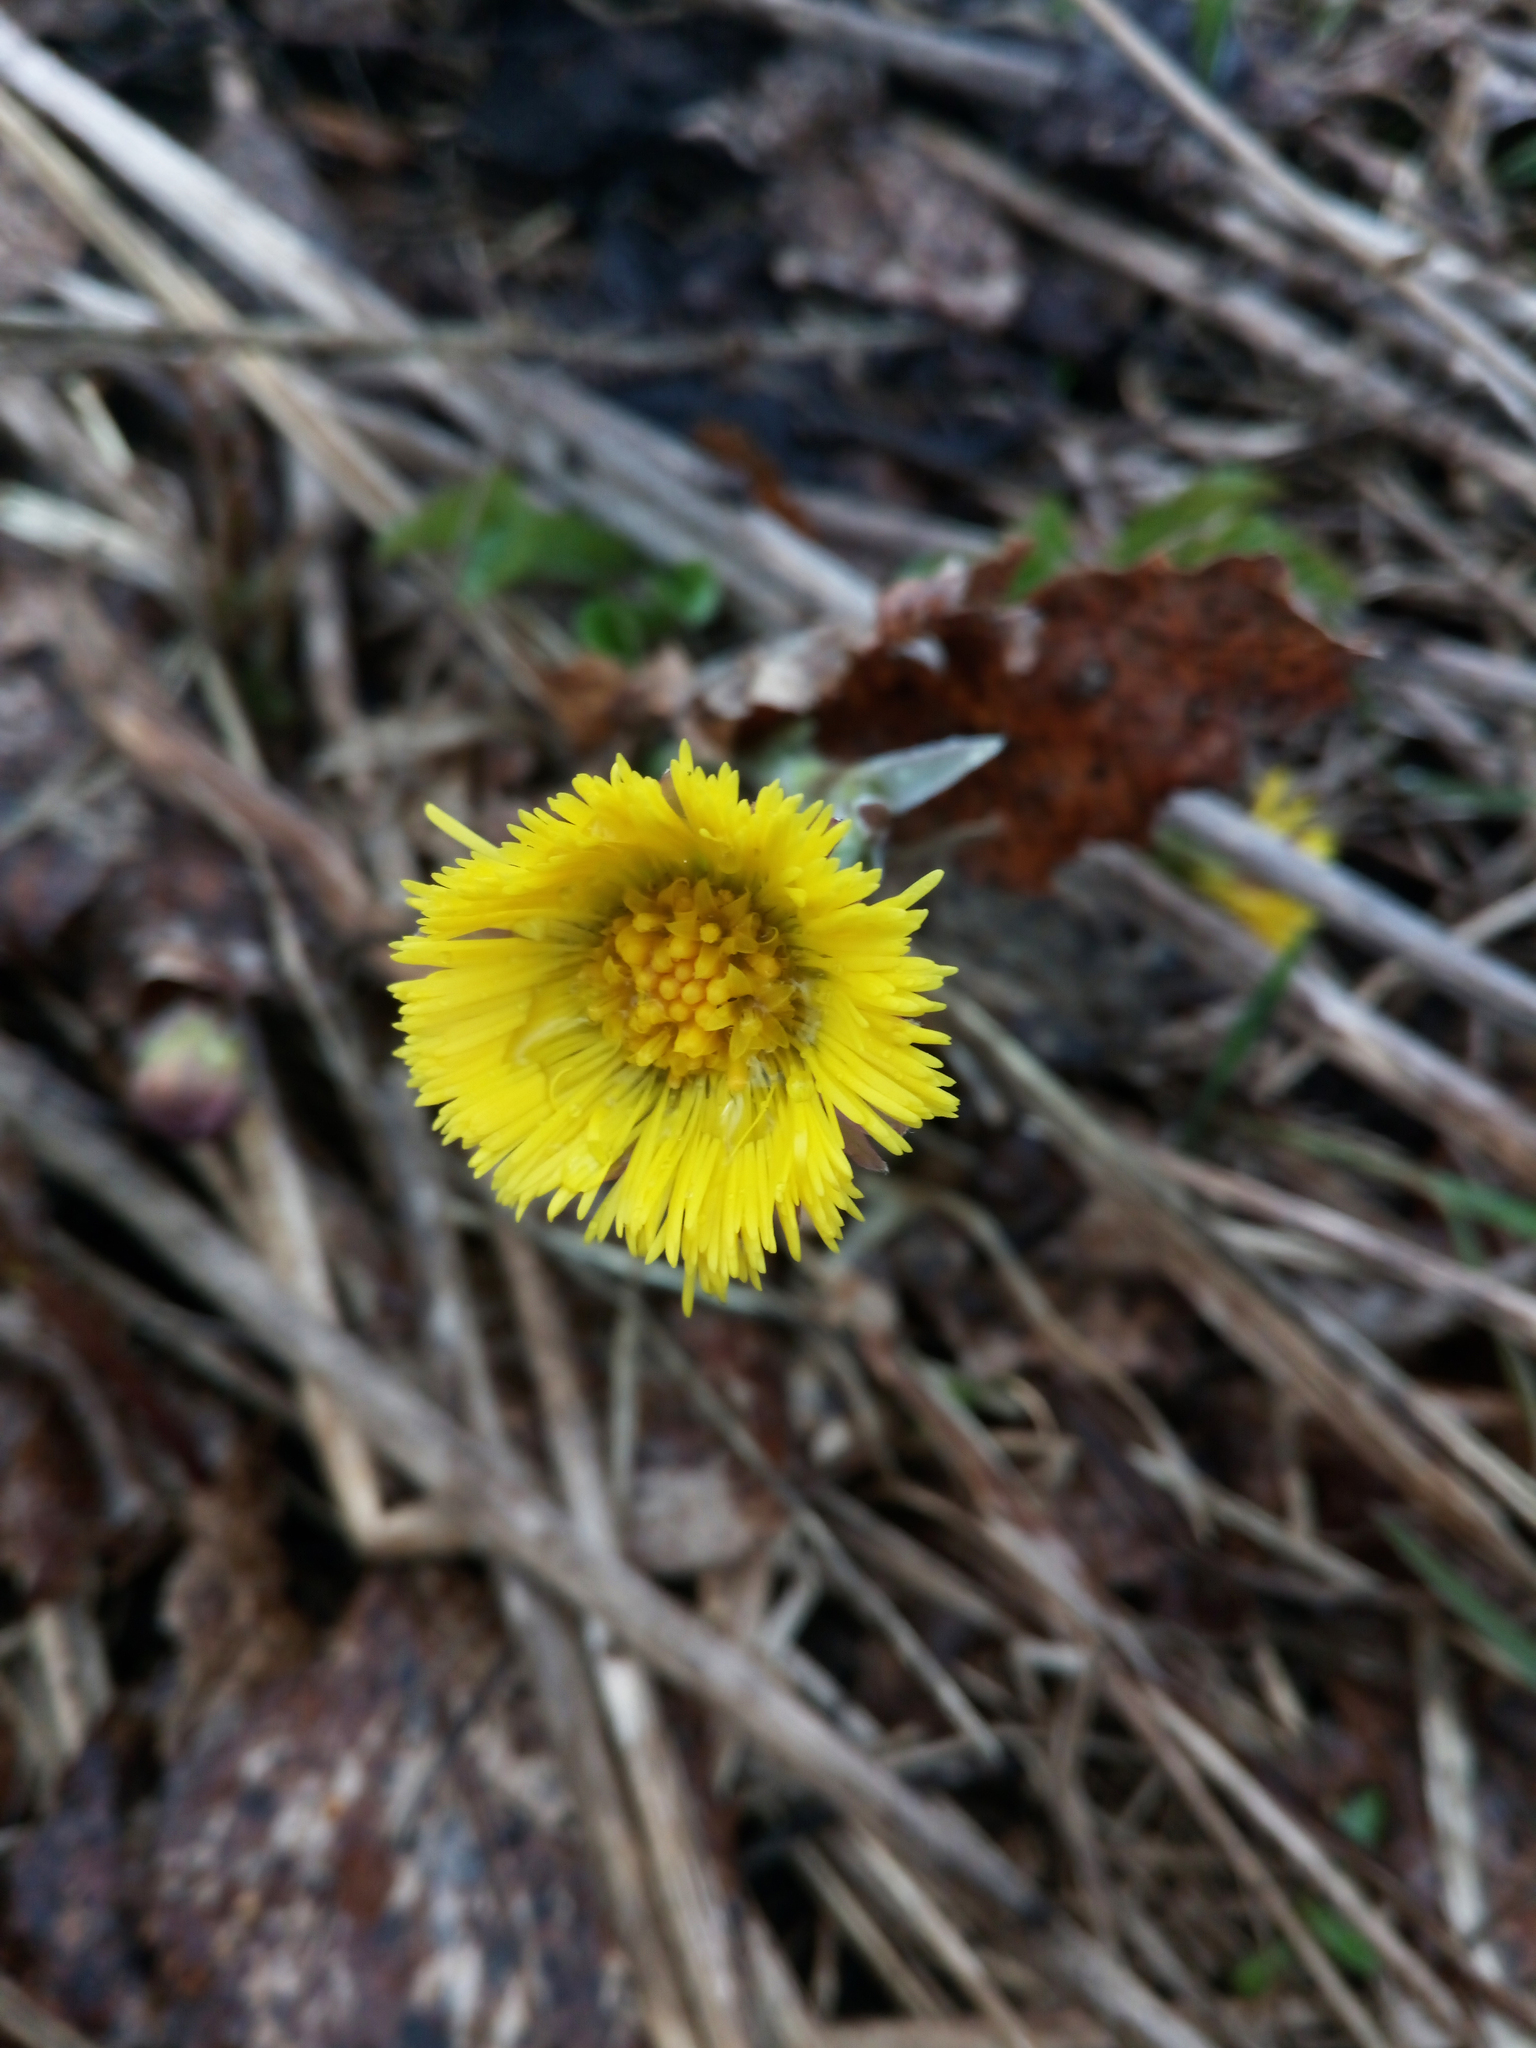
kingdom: Plantae
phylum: Tracheophyta
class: Magnoliopsida
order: Asterales
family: Asteraceae
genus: Tussilago
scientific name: Tussilago farfara
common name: Coltsfoot
